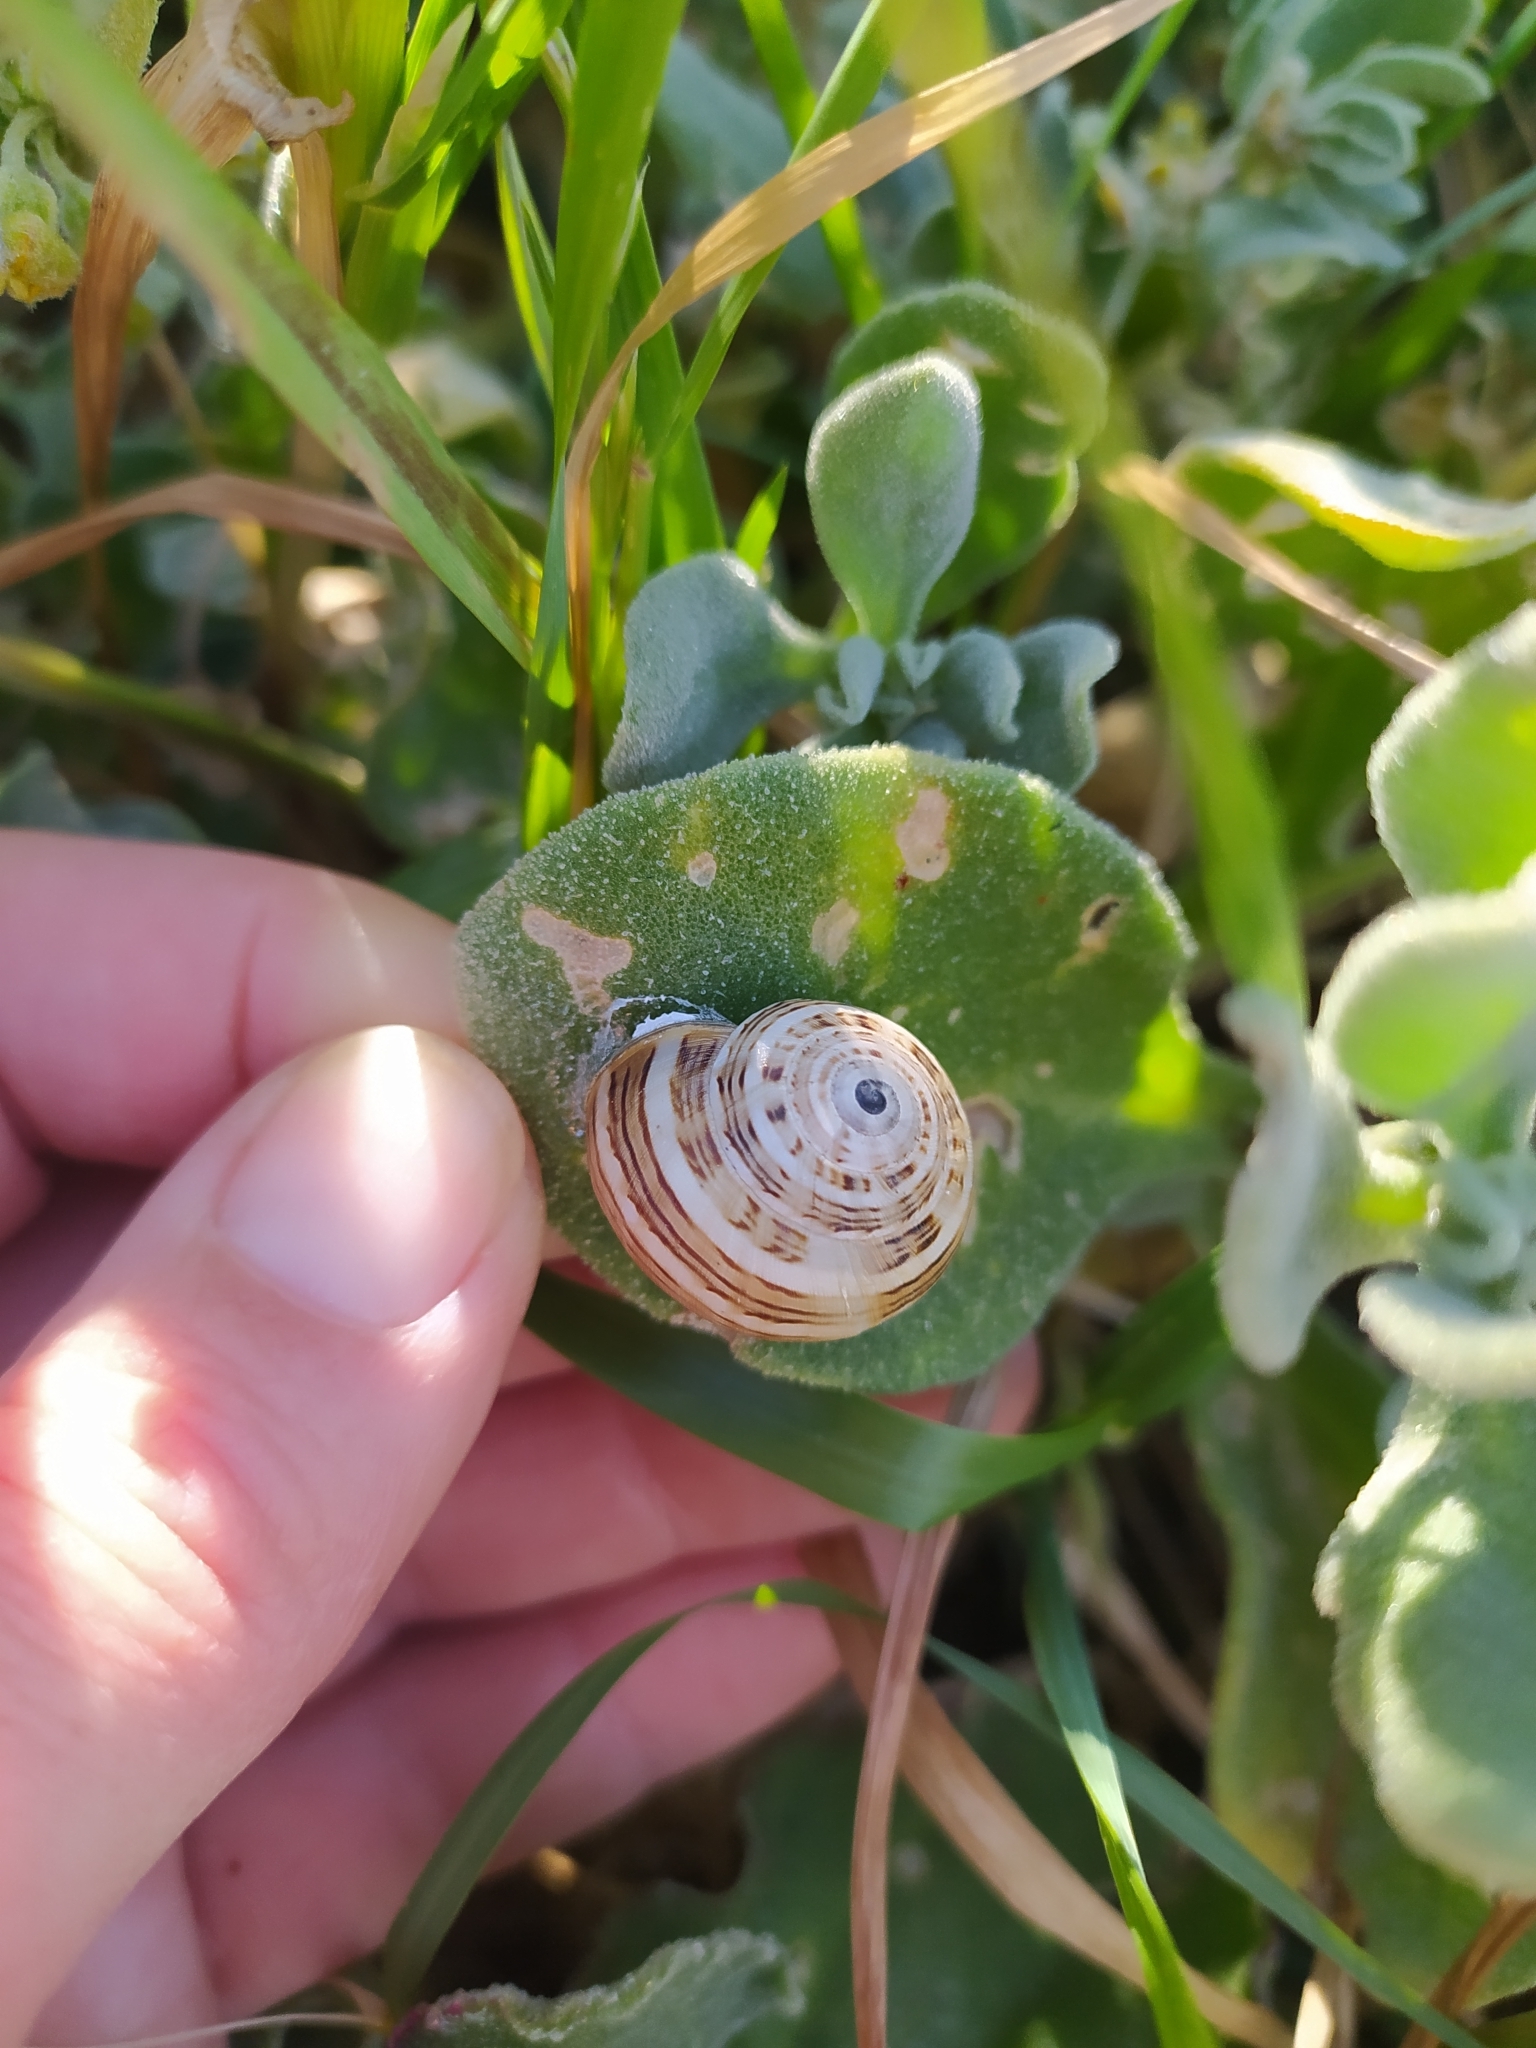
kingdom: Animalia
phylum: Mollusca
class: Gastropoda
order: Stylommatophora
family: Helicidae
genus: Theba
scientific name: Theba pisana
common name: White snail
